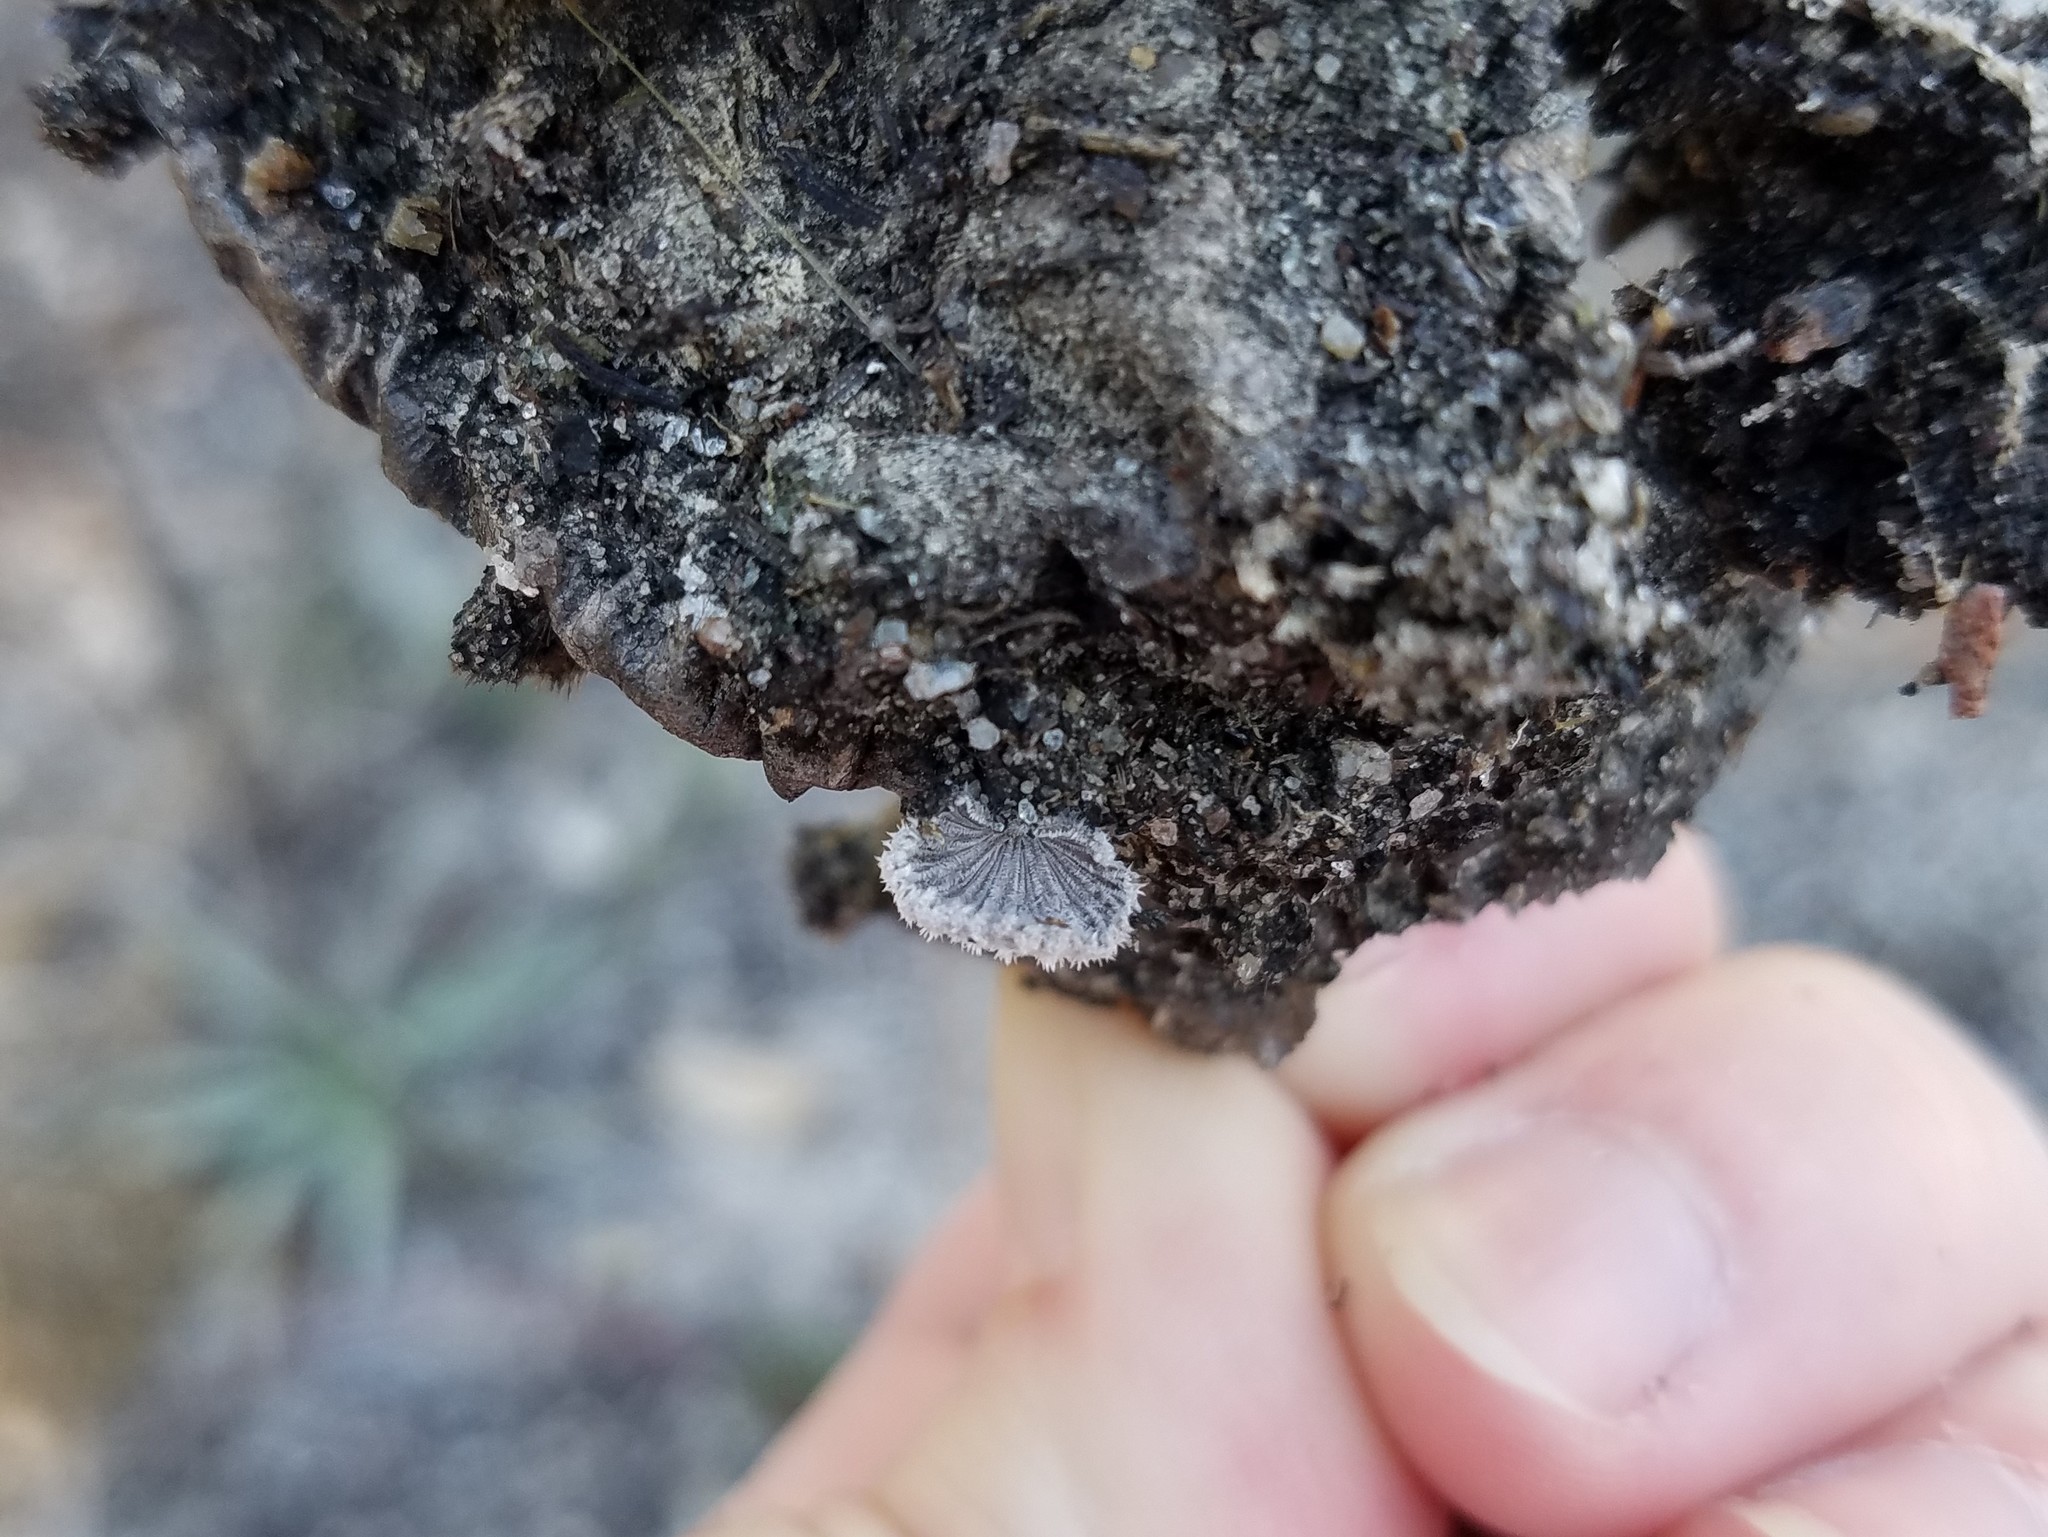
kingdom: Fungi
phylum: Basidiomycota
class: Agaricomycetes
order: Agaricales
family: Schizophyllaceae
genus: Schizophyllum
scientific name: Schizophyllum commune
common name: Common porecrust
